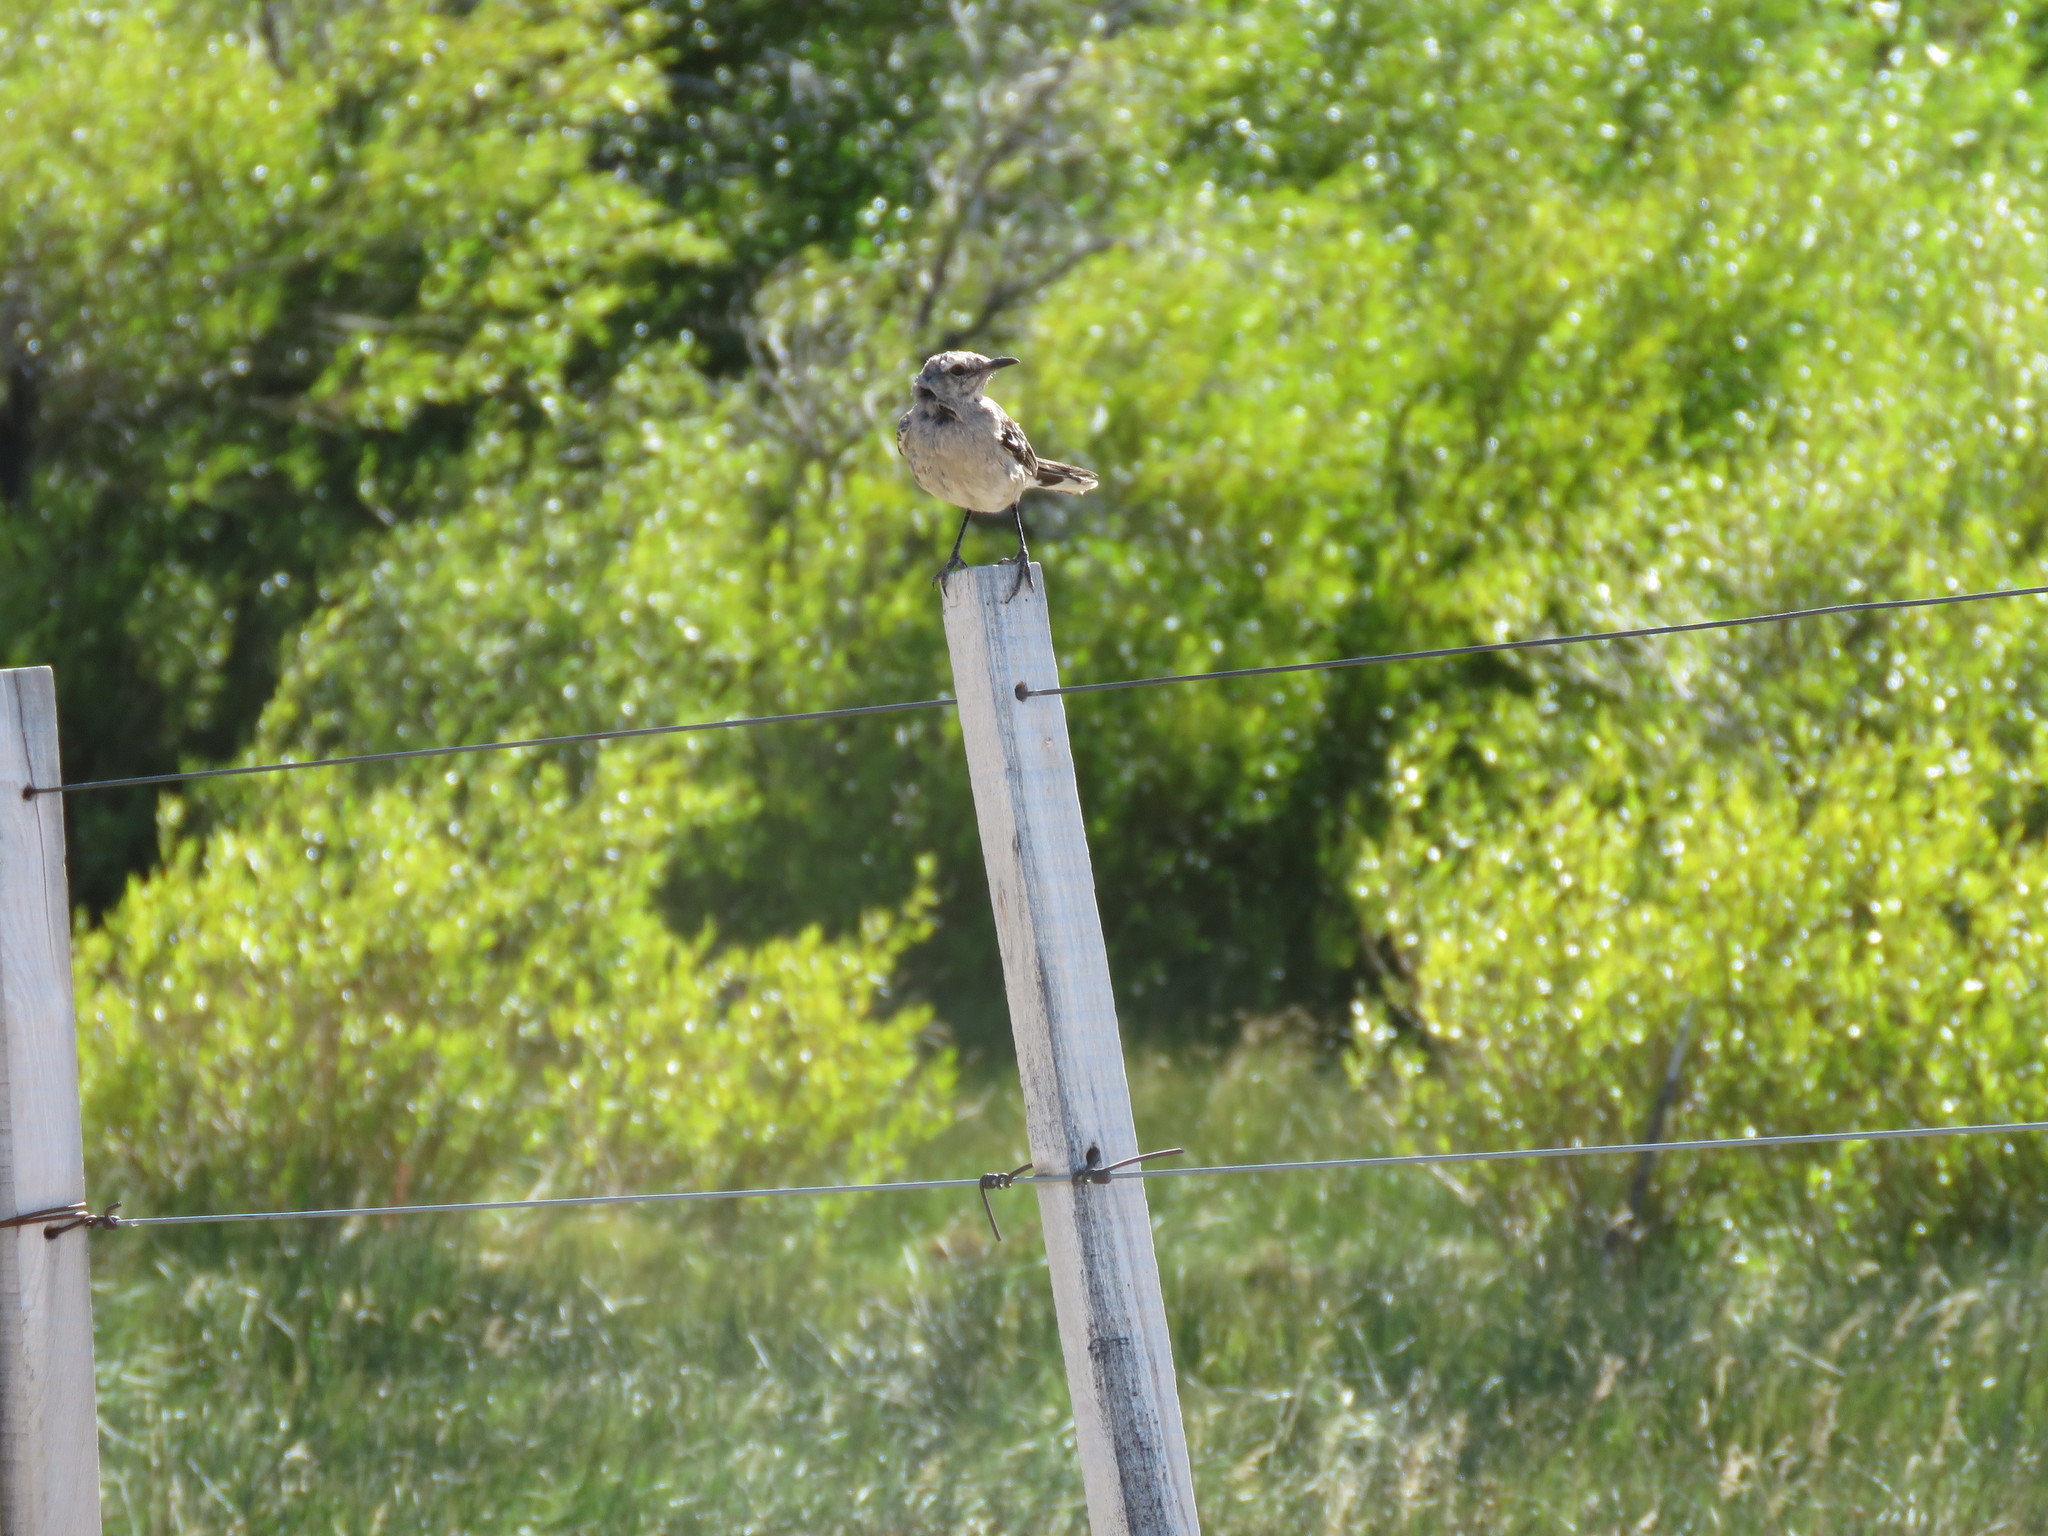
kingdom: Animalia
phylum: Chordata
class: Aves
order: Passeriformes
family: Mimidae
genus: Mimus
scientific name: Mimus patagonicus
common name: Patagonian mockingbird
